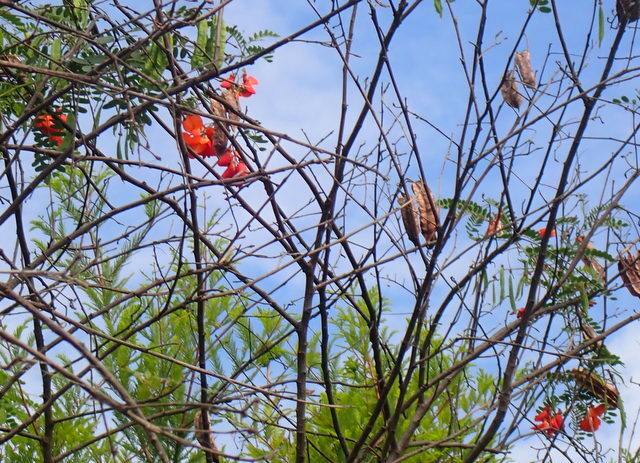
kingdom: Plantae
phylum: Tracheophyta
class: Magnoliopsida
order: Fabales
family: Fabaceae
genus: Sesbania
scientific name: Sesbania punicea
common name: Rattlebox
